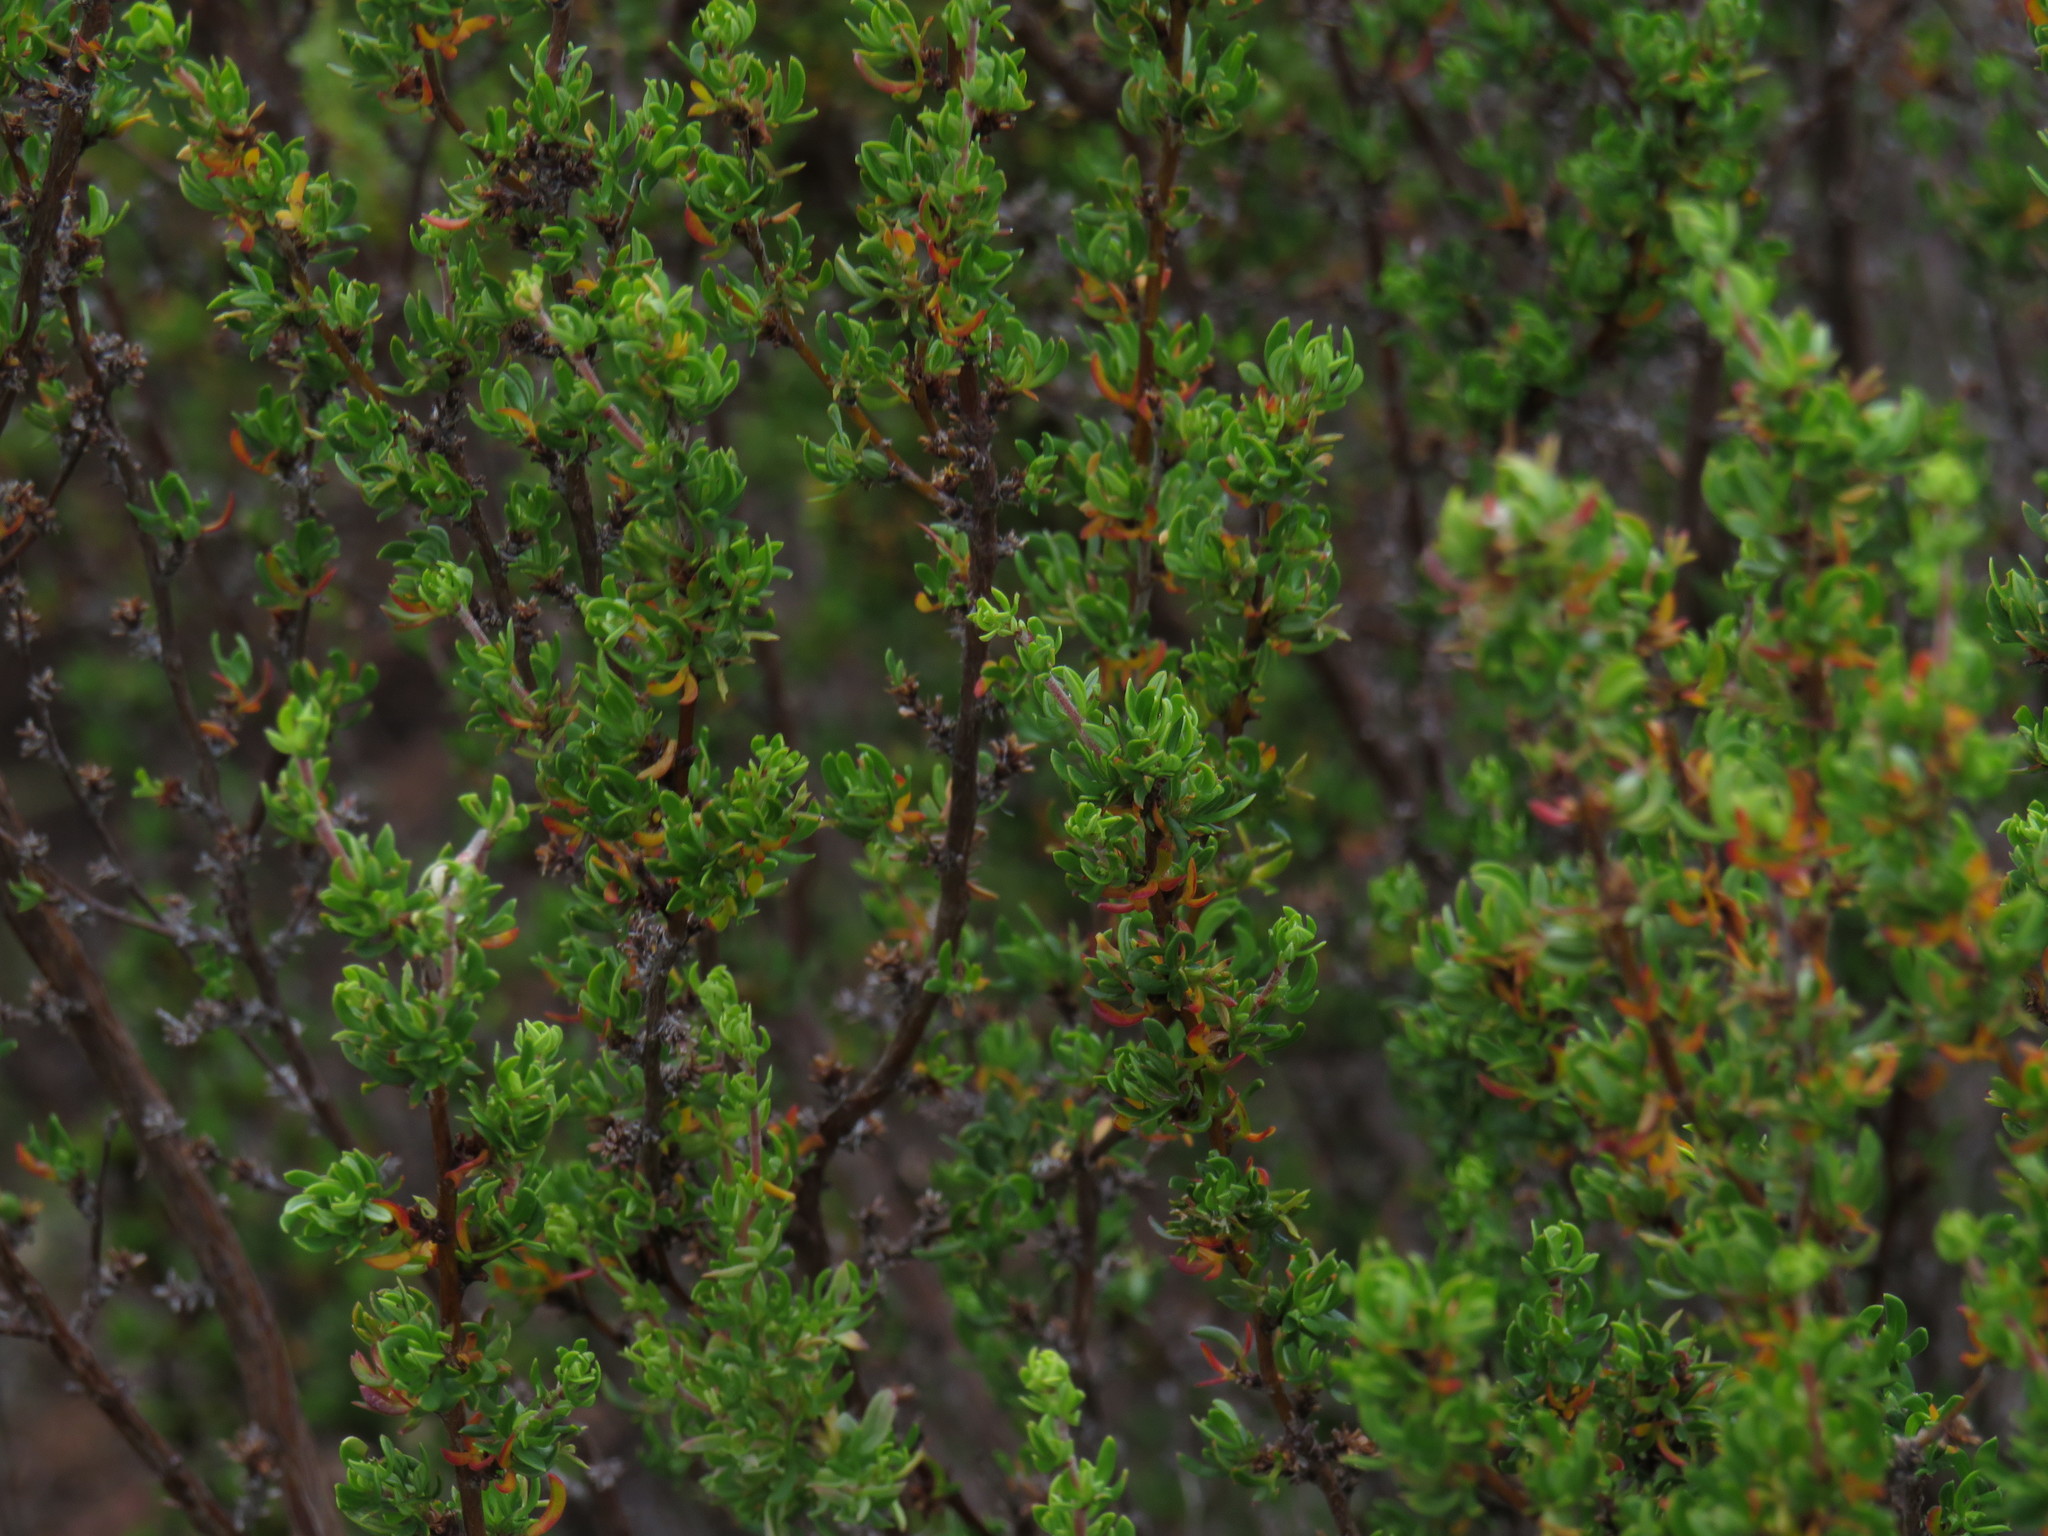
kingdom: Plantae
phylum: Tracheophyta
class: Magnoliopsida
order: Rosales
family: Rosaceae
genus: Cliffortia
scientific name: Cliffortia falcata
